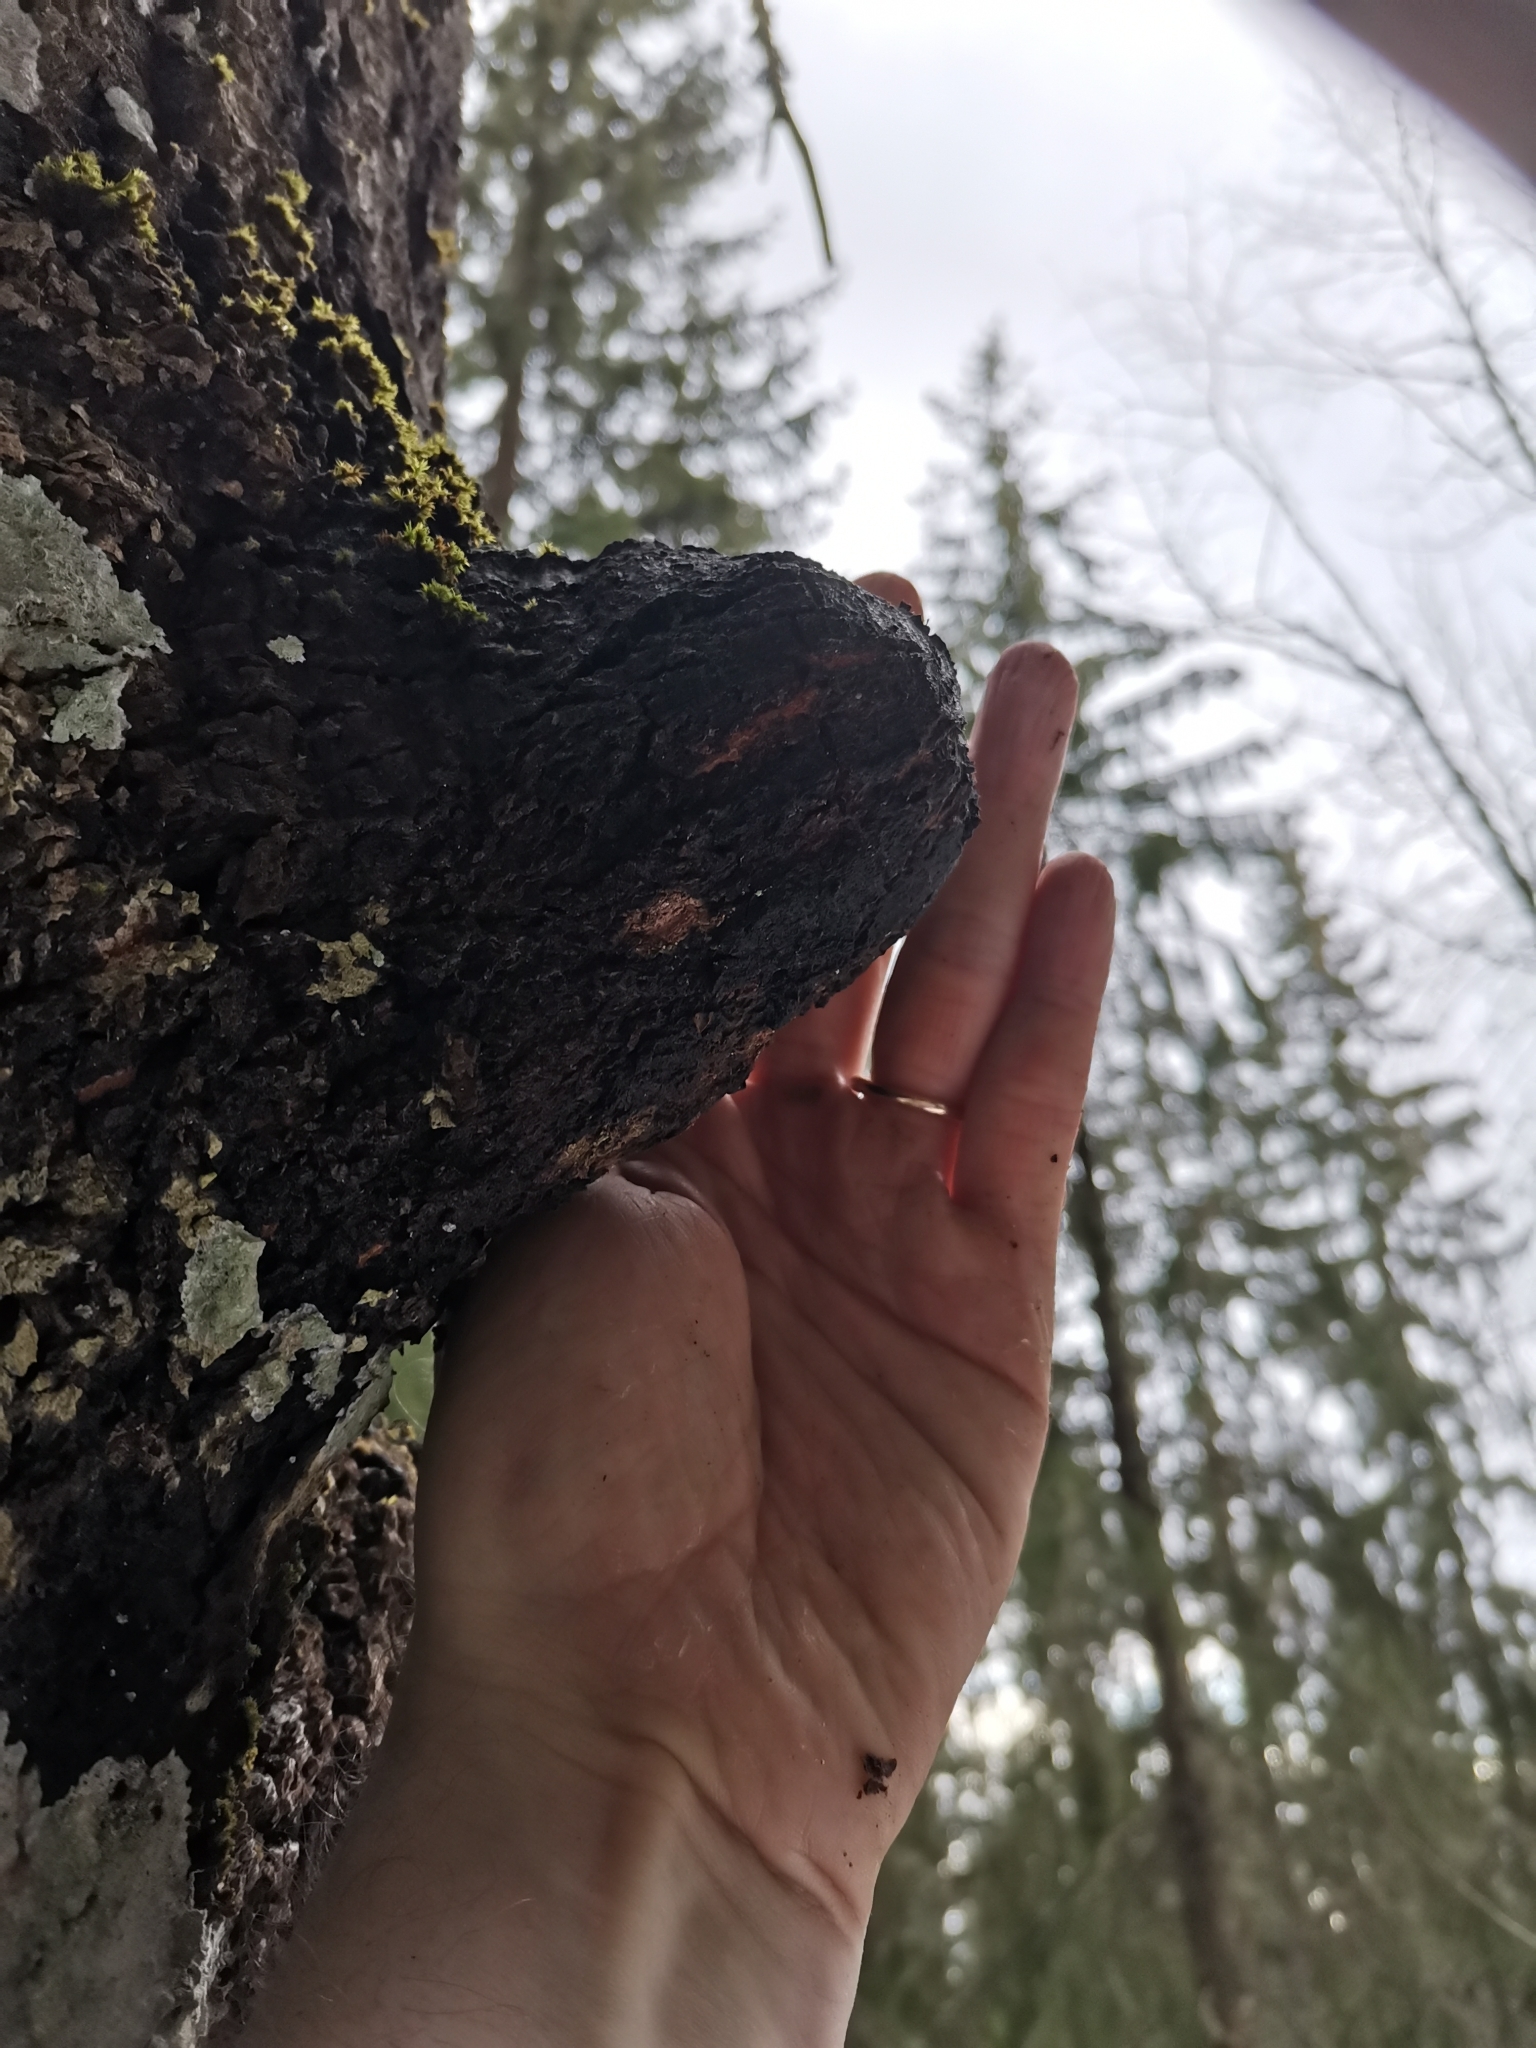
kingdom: Plantae
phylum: Tracheophyta
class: Magnoliopsida
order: Malpighiales
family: Salicaceae
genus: Populus
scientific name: Populus tremula
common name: European aspen
